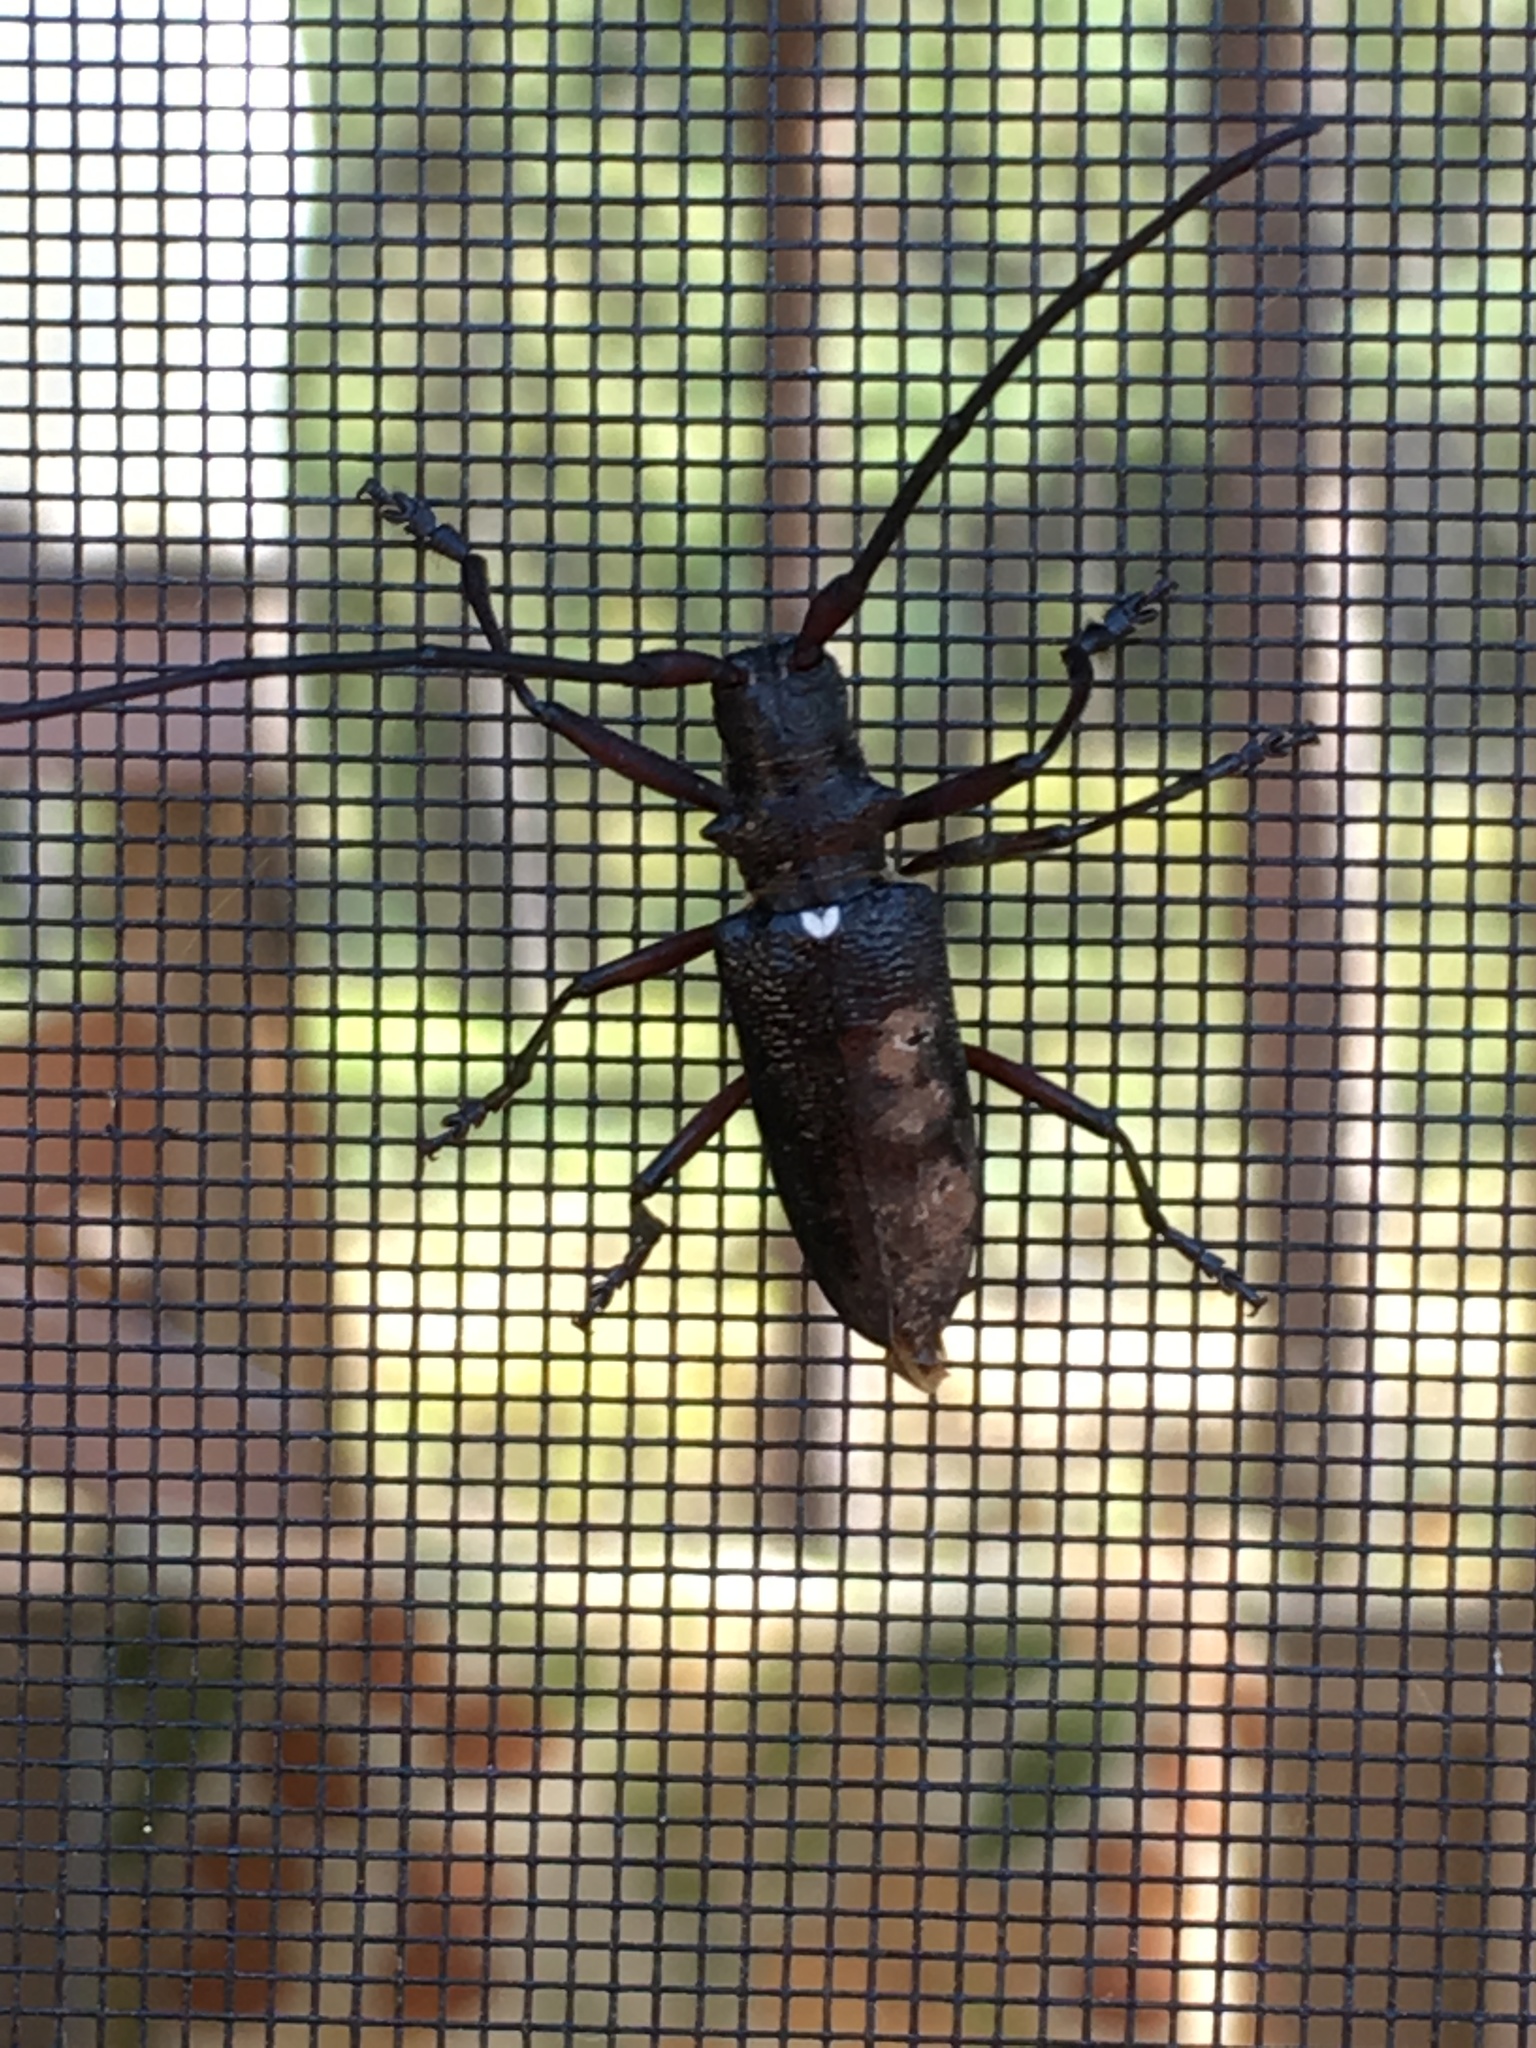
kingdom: Animalia
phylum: Arthropoda
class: Insecta
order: Coleoptera
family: Cerambycidae
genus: Monochamus
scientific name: Monochamus scutellatus
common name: White-spotted sawyer beetle
